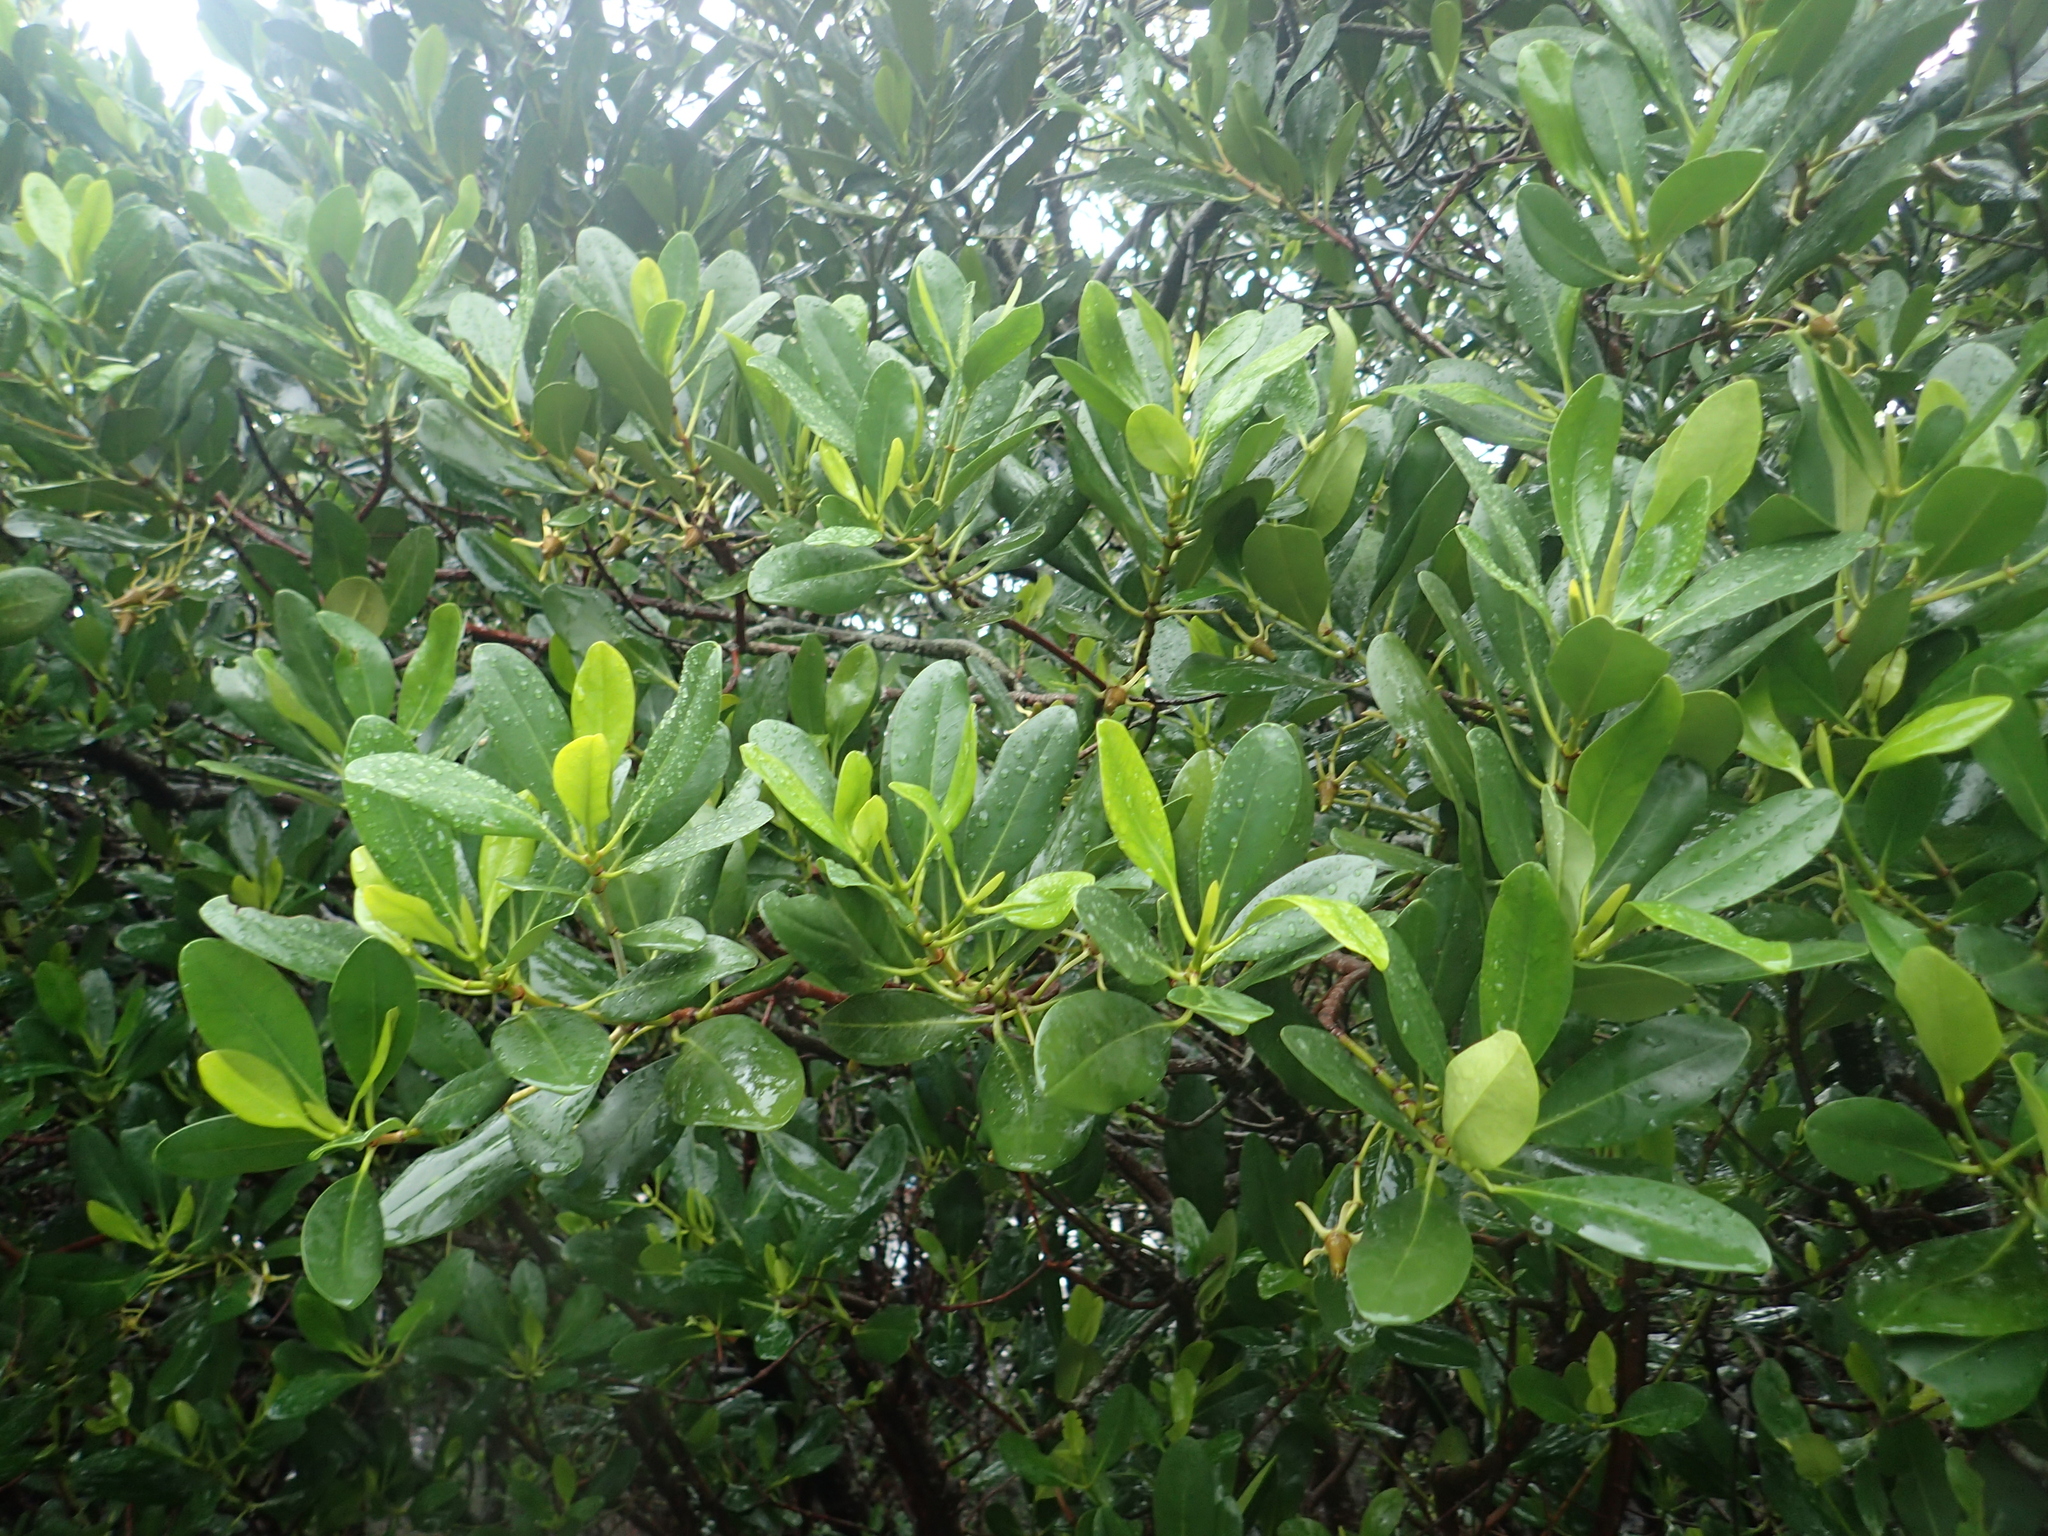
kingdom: Plantae
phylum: Tracheophyta
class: Magnoliopsida
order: Malpighiales
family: Rhizophoraceae
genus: Kandelia
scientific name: Kandelia obovata
